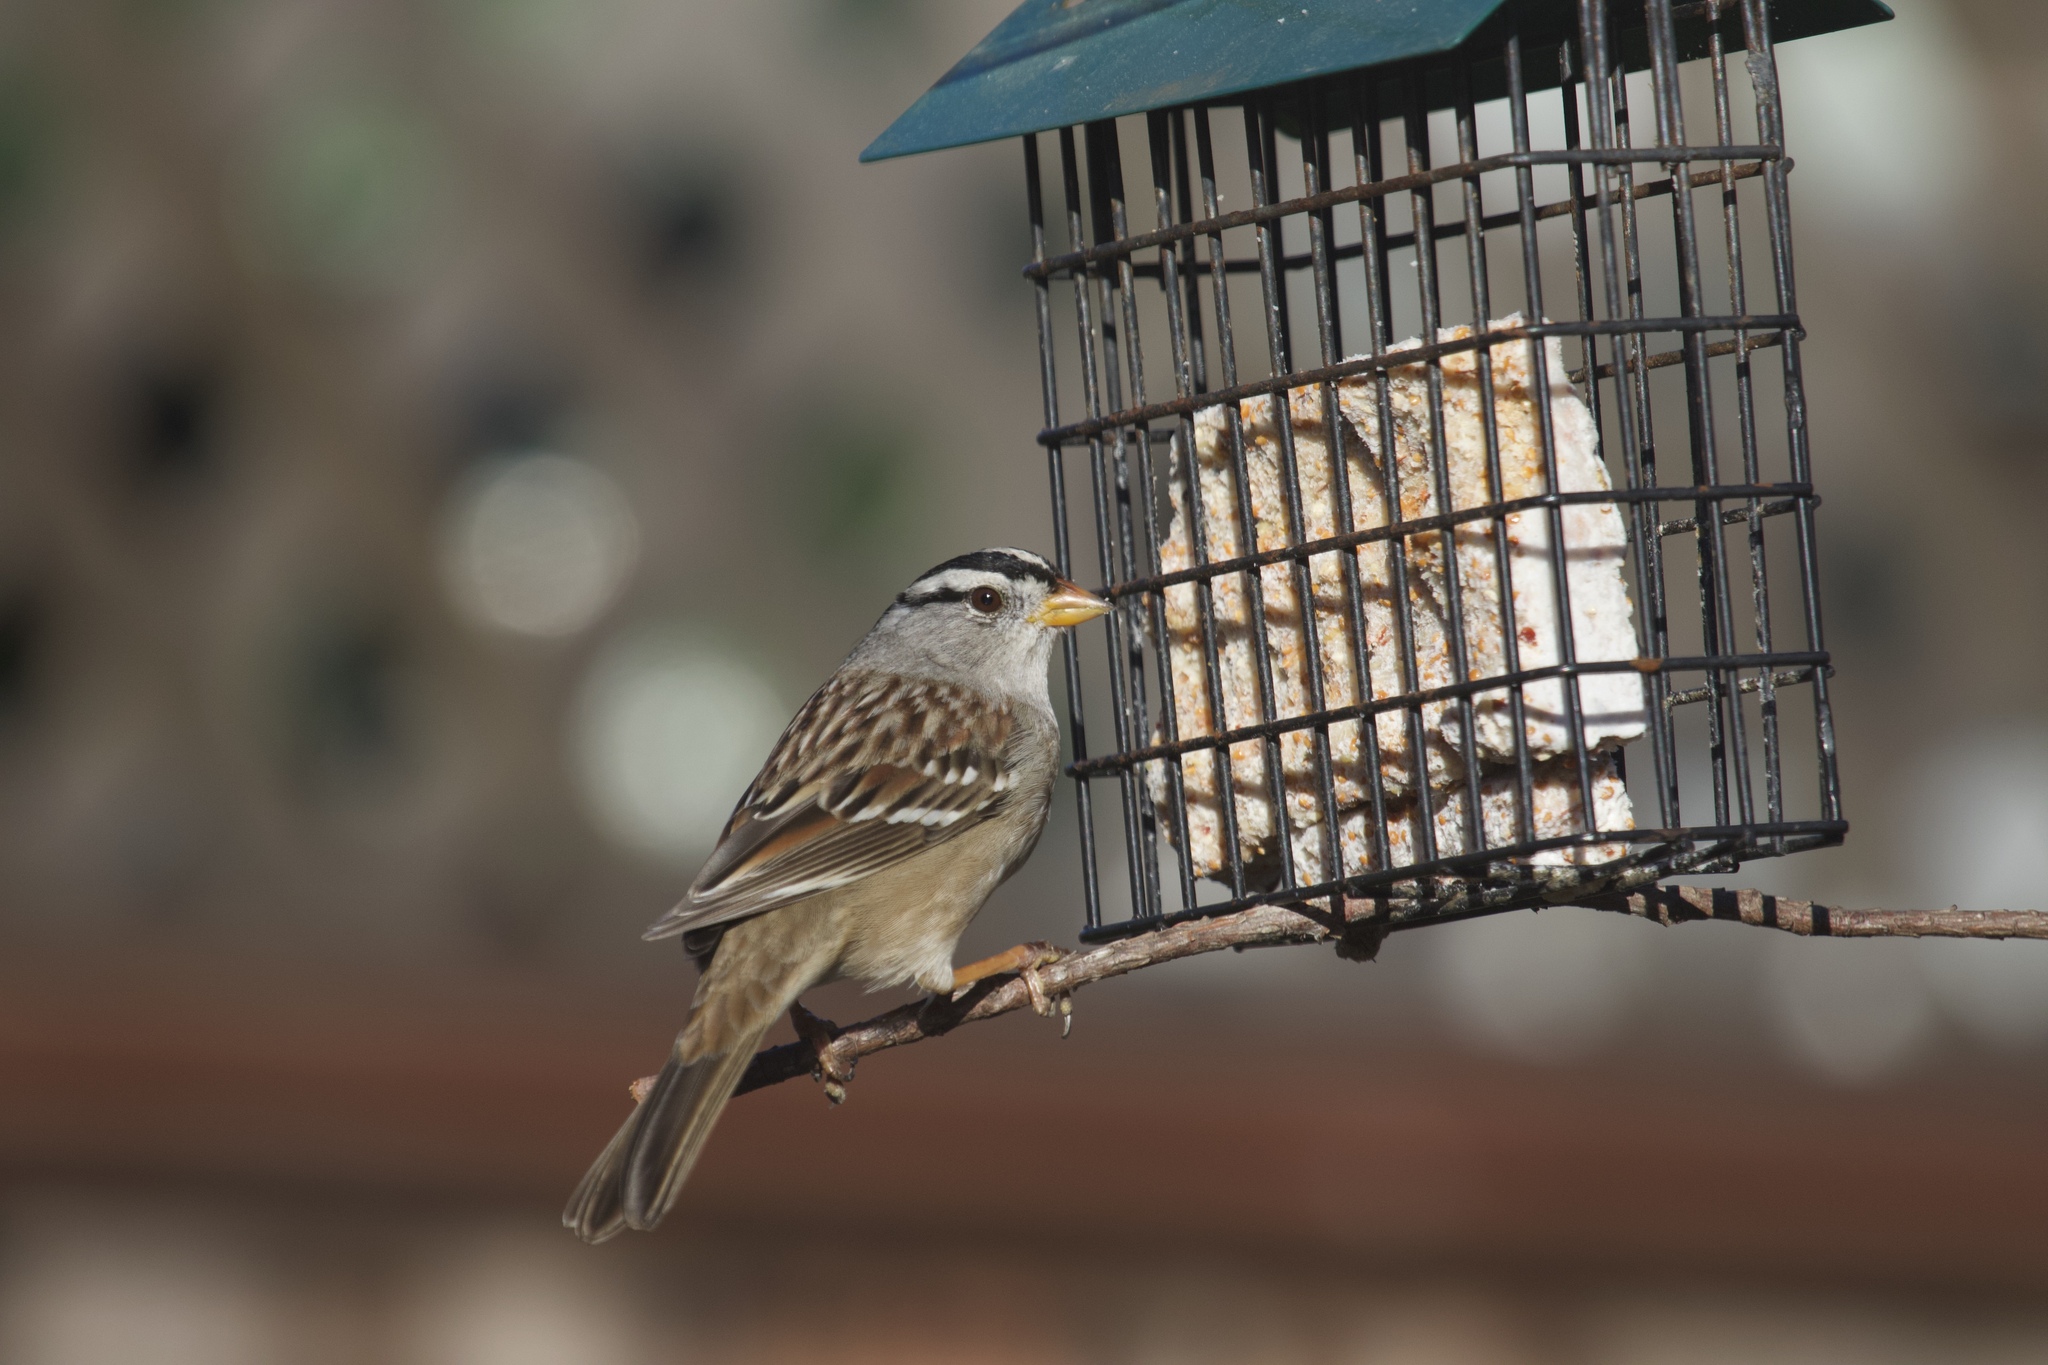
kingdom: Animalia
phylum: Chordata
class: Aves
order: Passeriformes
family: Passerellidae
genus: Zonotrichia
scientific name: Zonotrichia leucophrys
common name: White-crowned sparrow
